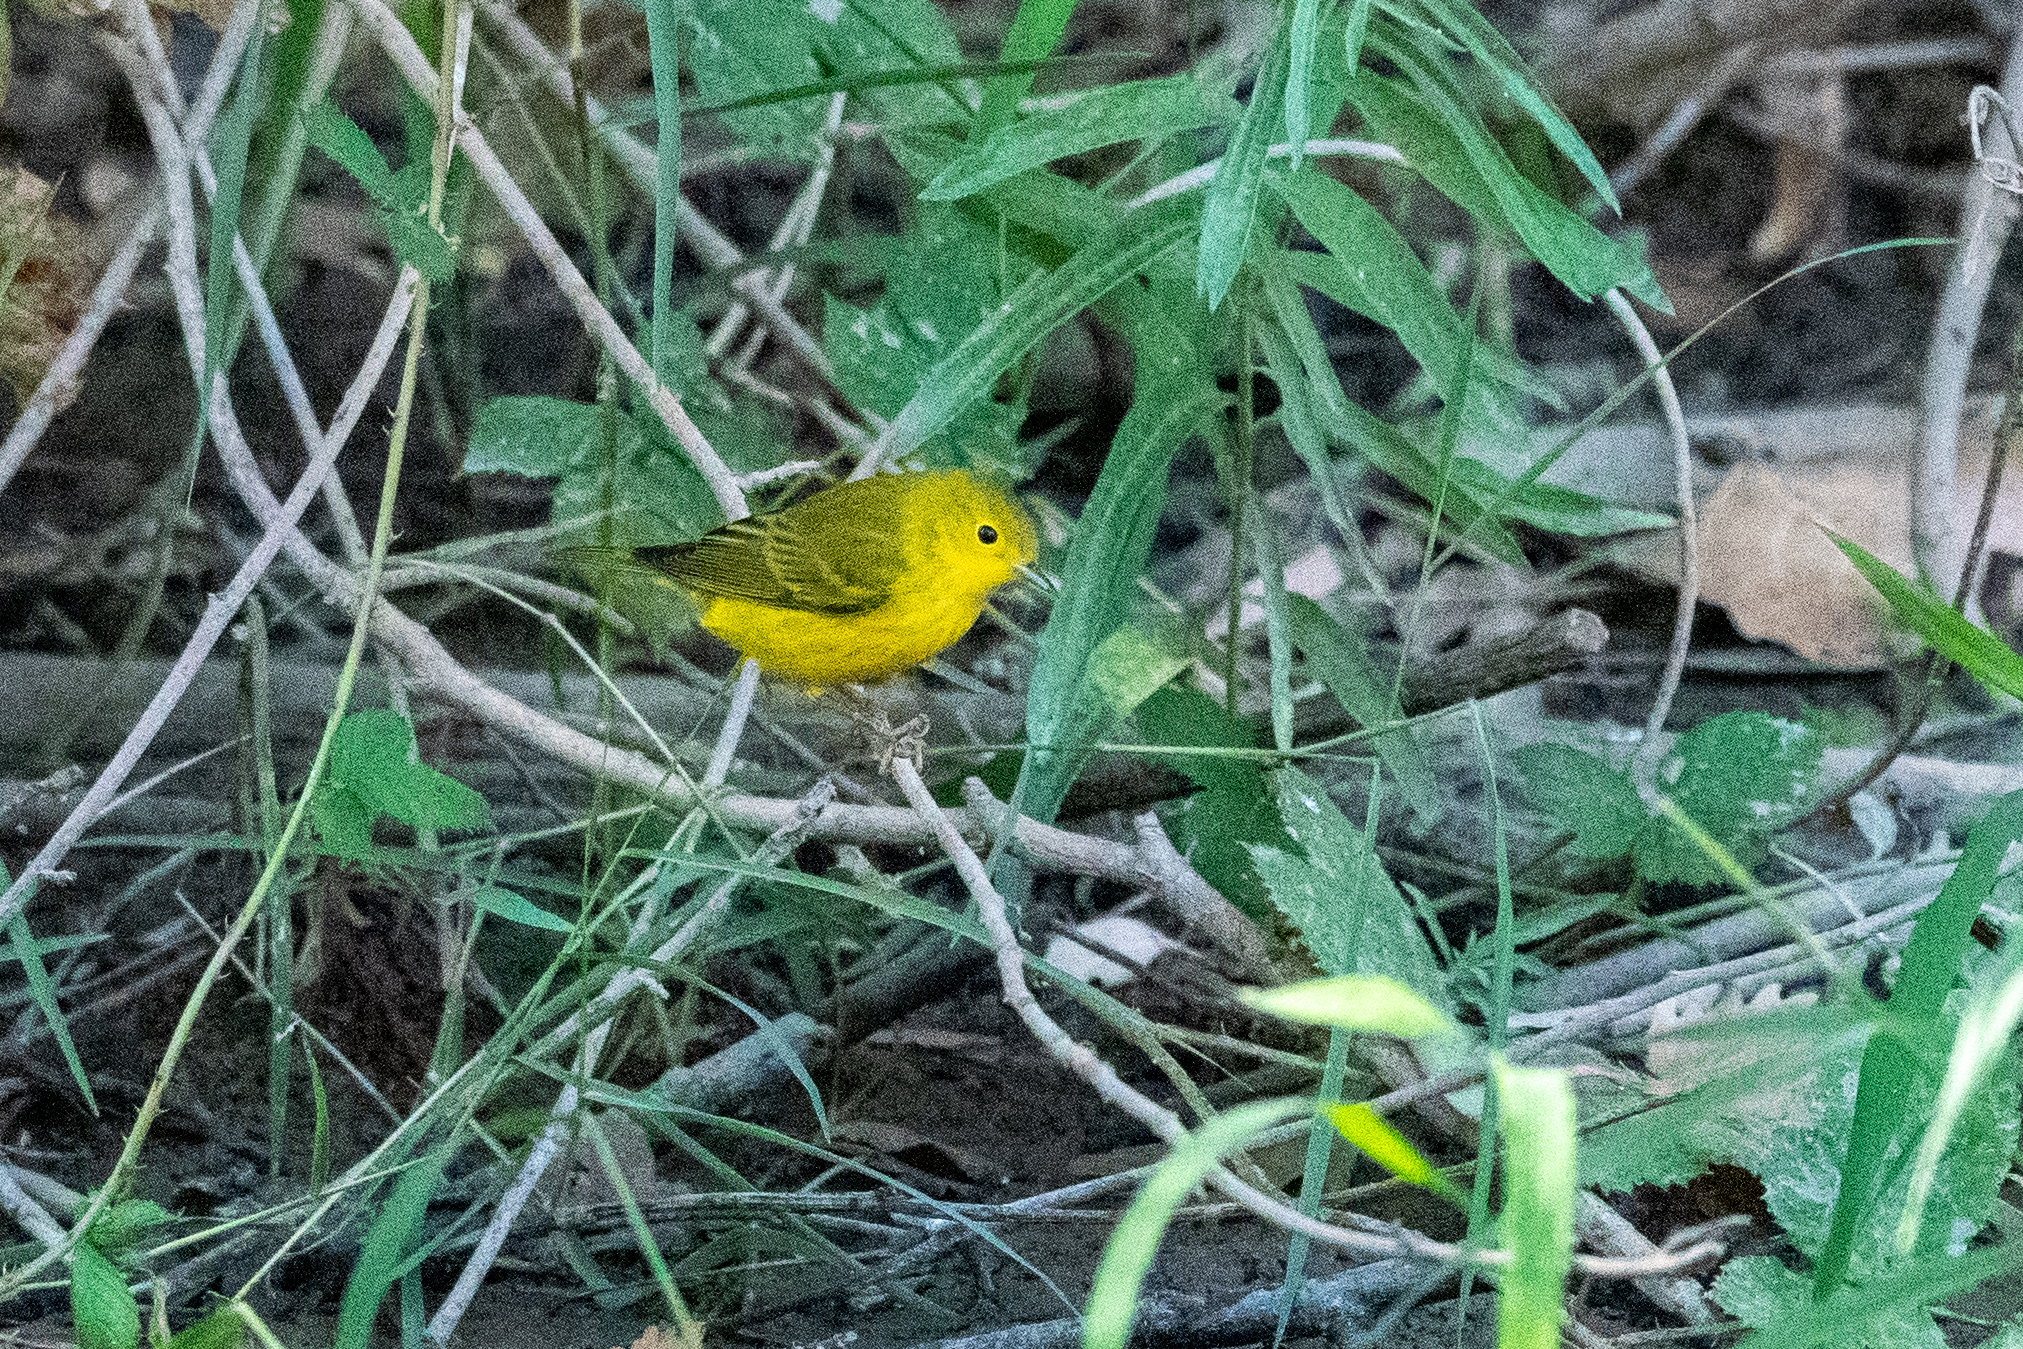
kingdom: Animalia
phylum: Chordata
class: Aves
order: Passeriformes
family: Parulidae
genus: Setophaga
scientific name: Setophaga petechia
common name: Yellow warbler
